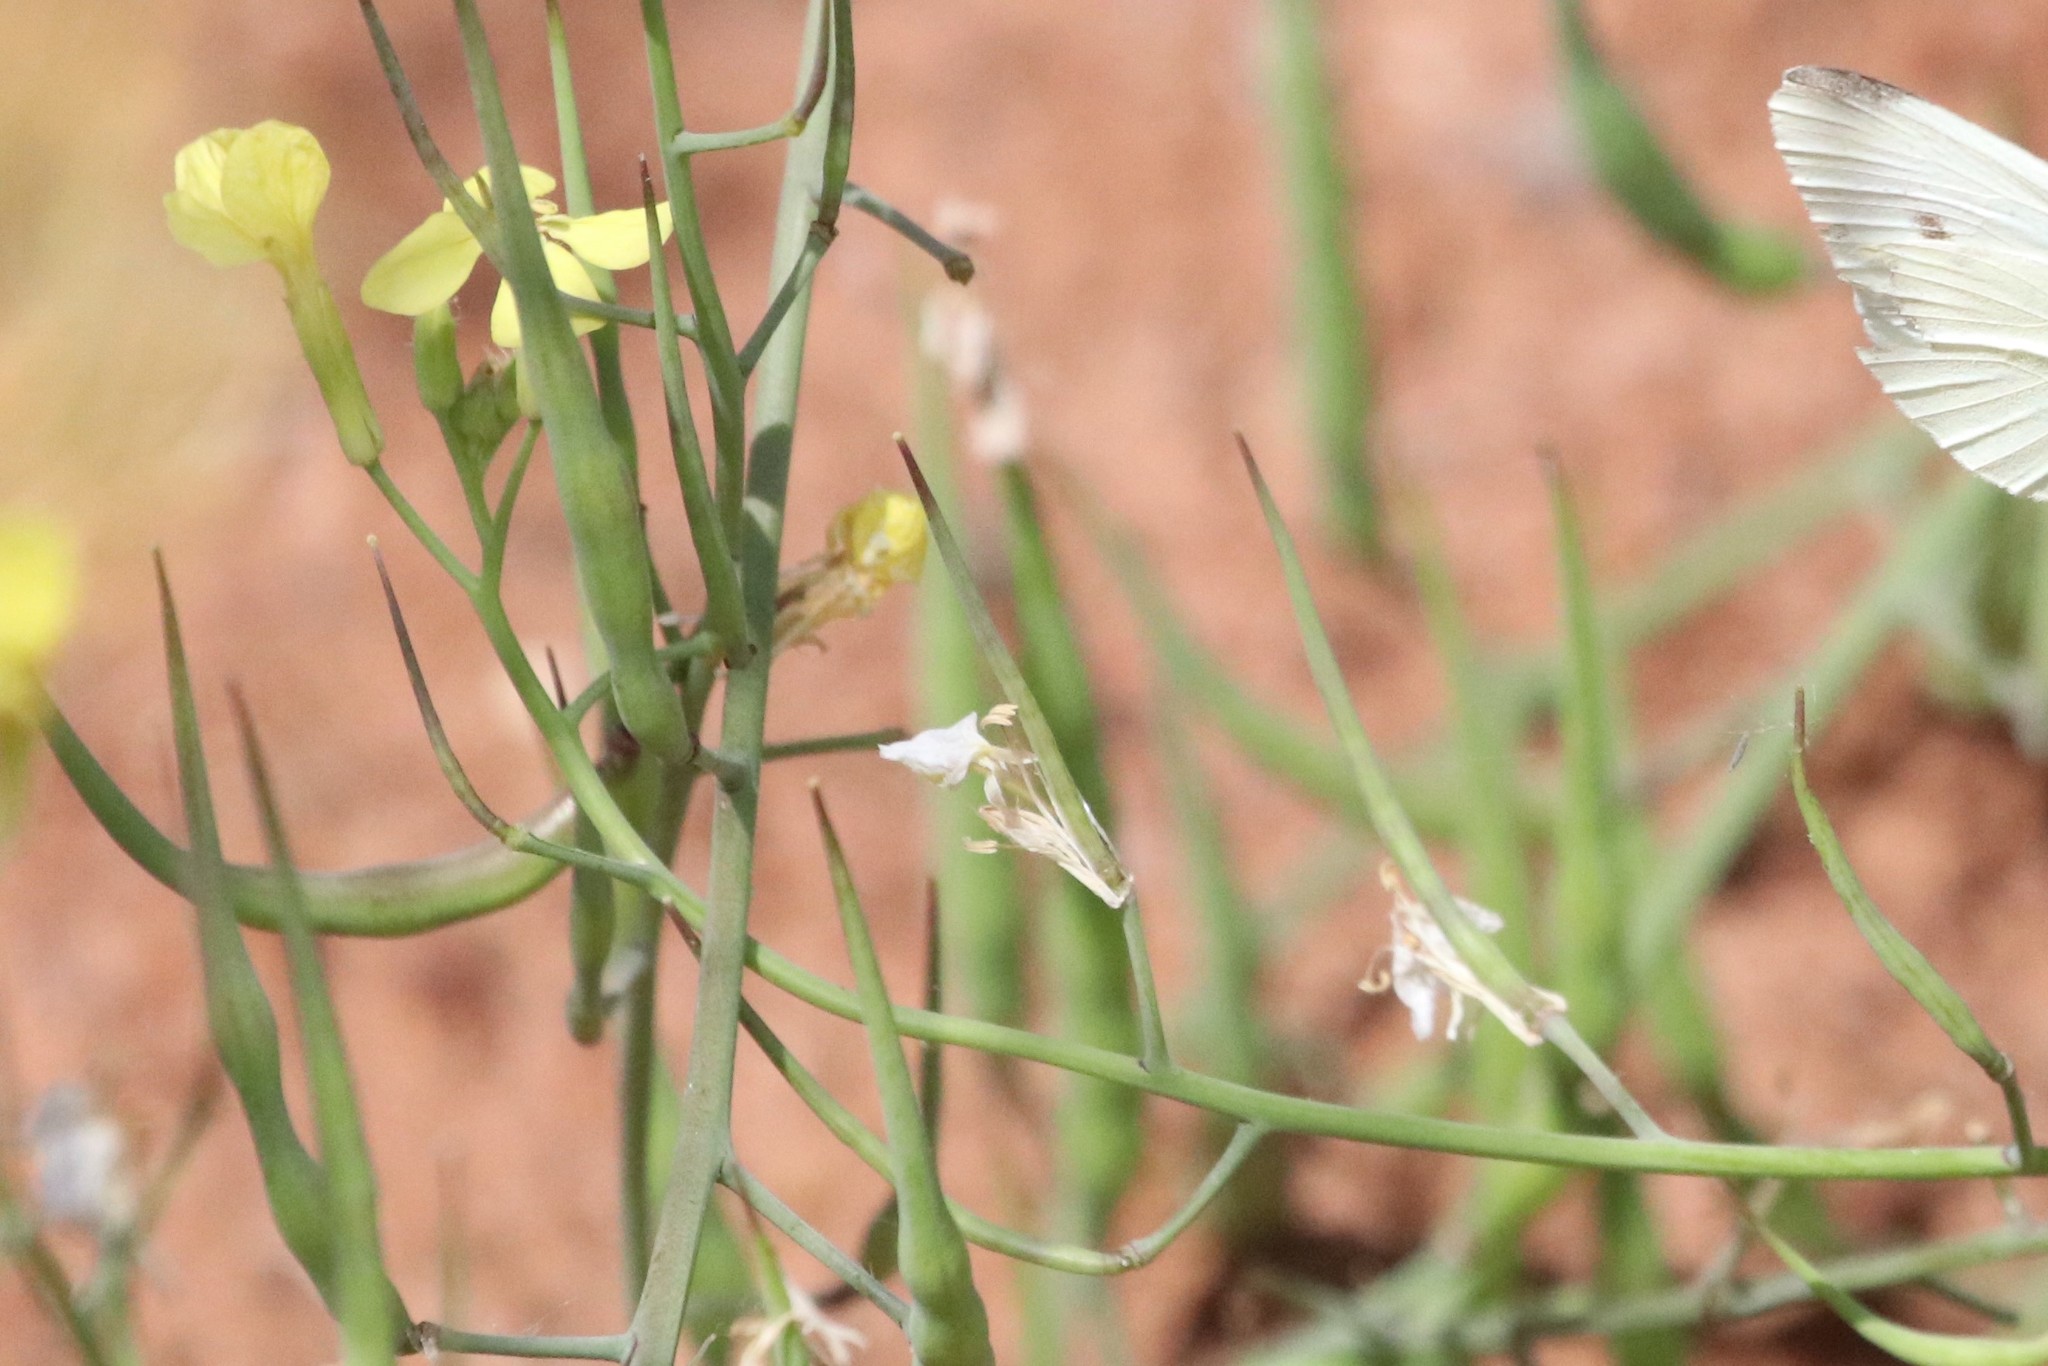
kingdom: Plantae
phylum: Tracheophyta
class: Magnoliopsida
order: Brassicales
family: Brassicaceae
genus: Raphanus
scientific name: Raphanus raphanistrum
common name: Wild radish
